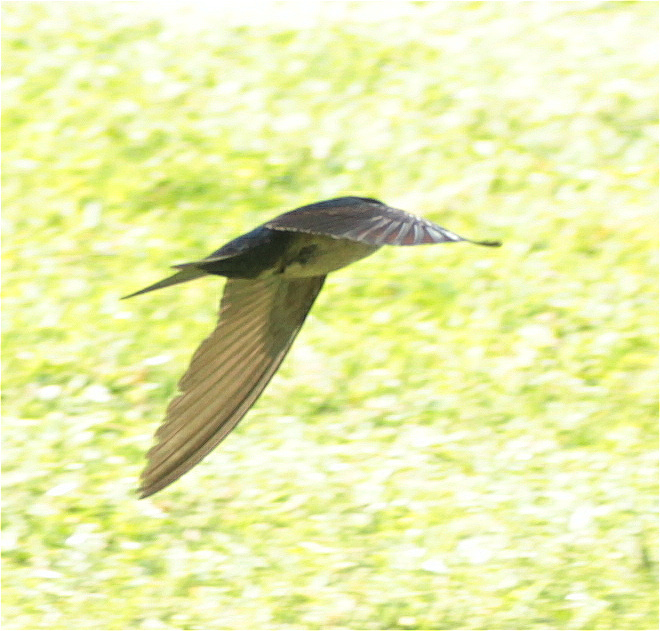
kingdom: Animalia
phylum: Chordata
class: Aves
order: Passeriformes
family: Hirundinidae
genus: Notiochelidon
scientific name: Notiochelidon murina
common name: Brown-bellied swallow
